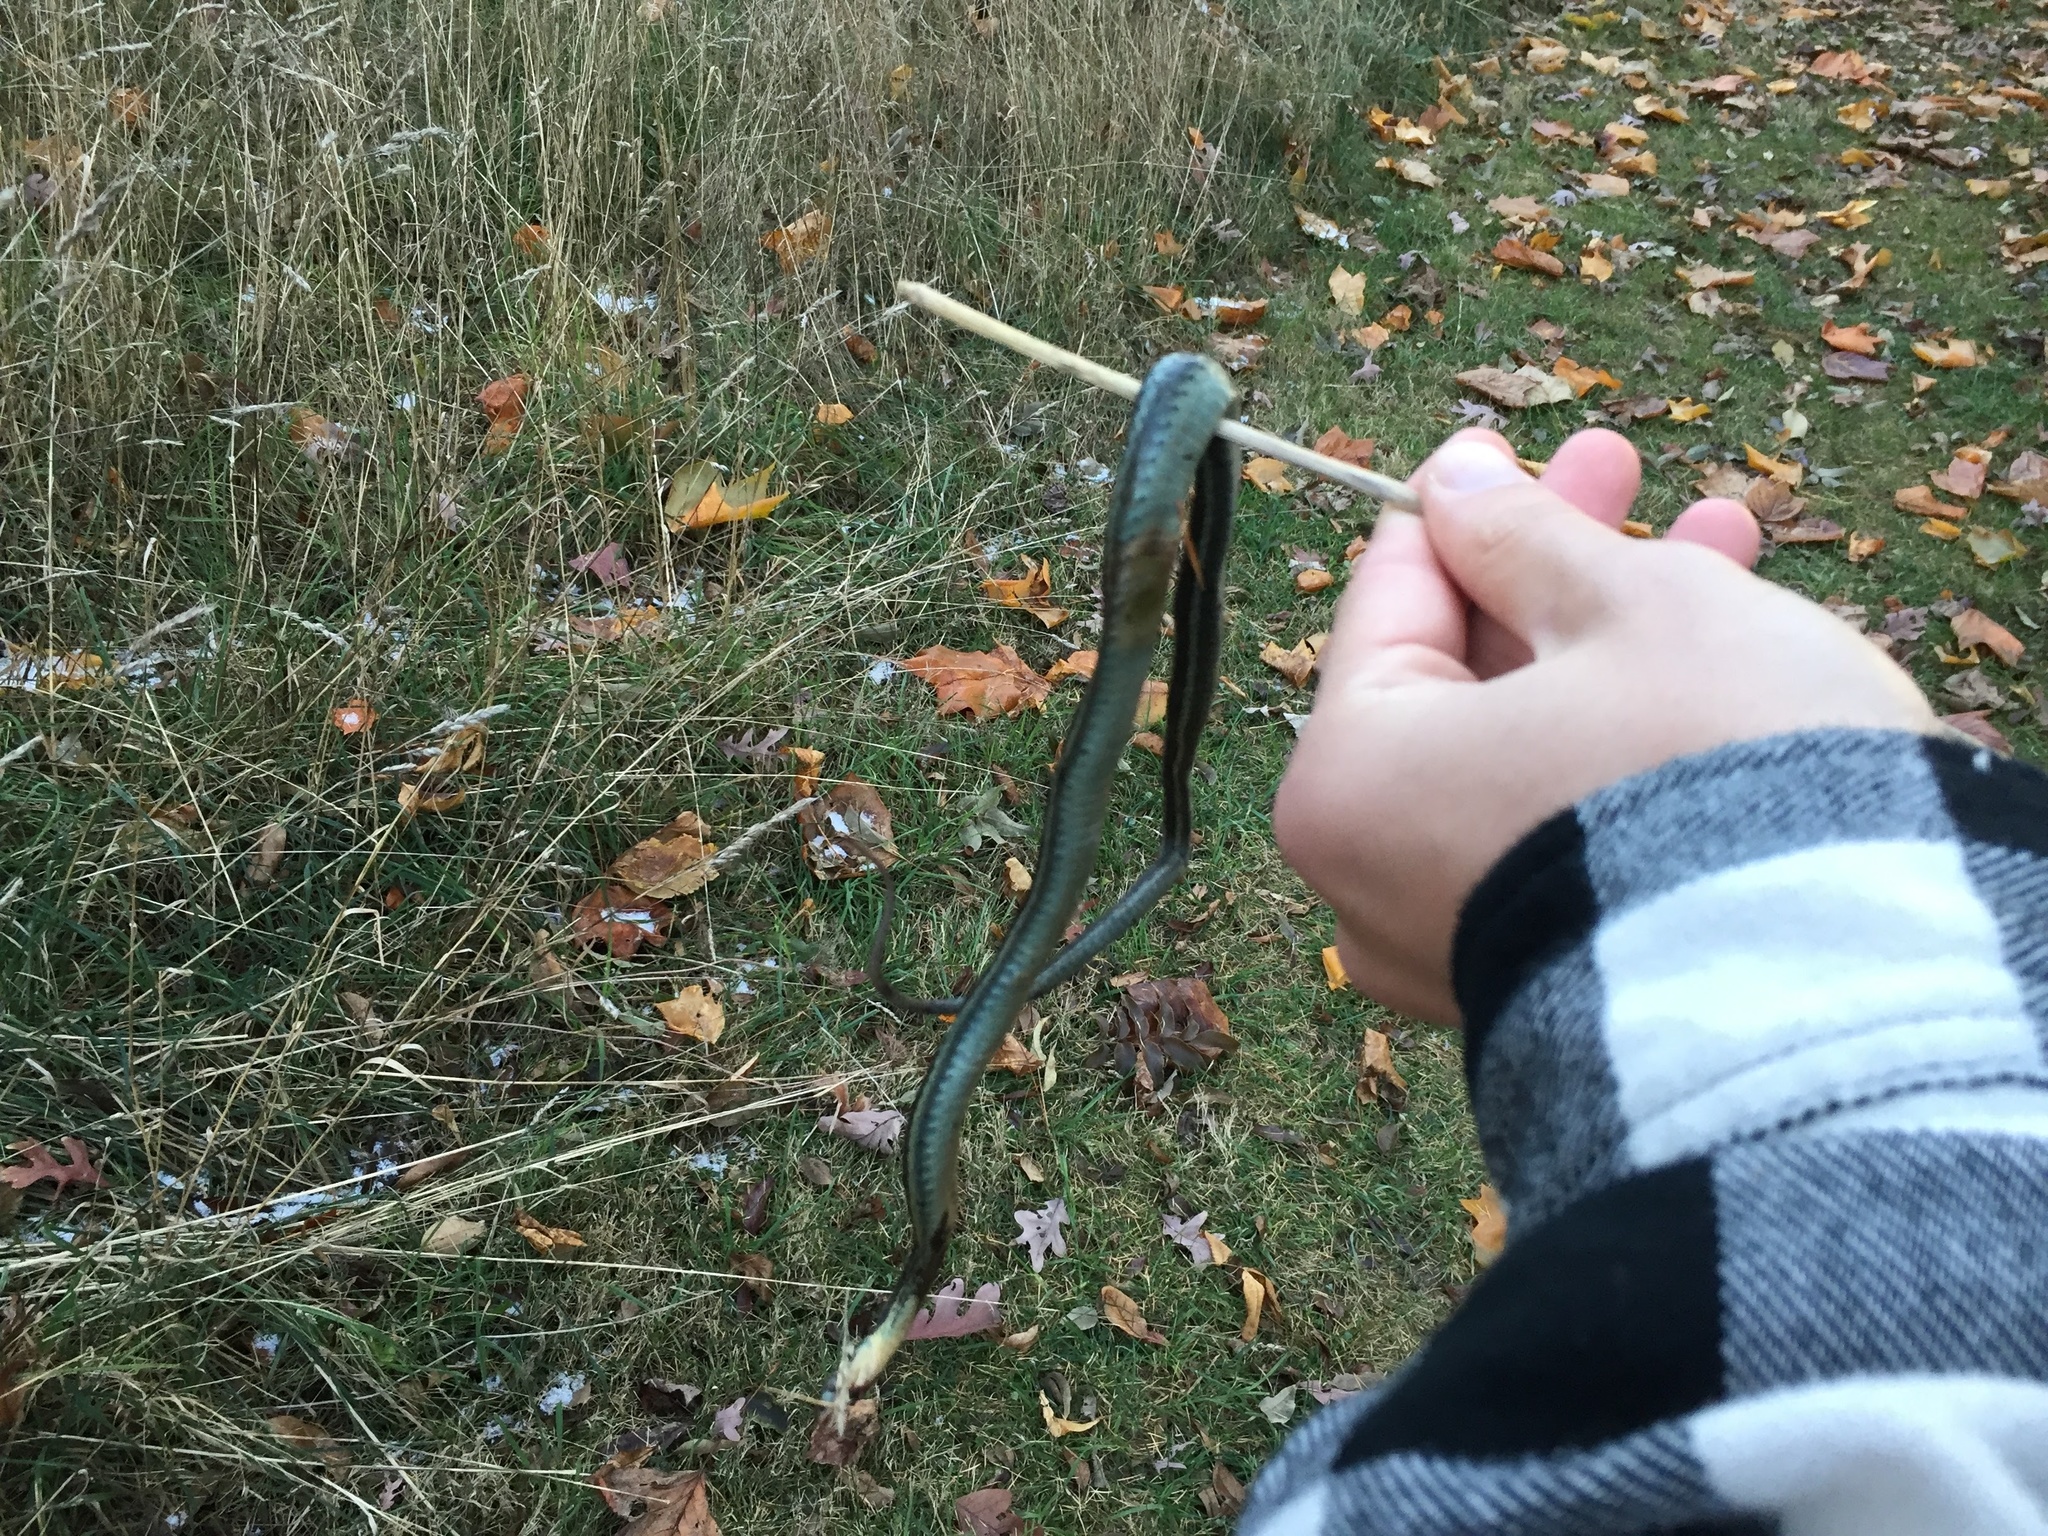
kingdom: Animalia
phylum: Chordata
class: Squamata
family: Colubridae
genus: Thamnophis
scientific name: Thamnophis sirtalis
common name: Common garter snake
